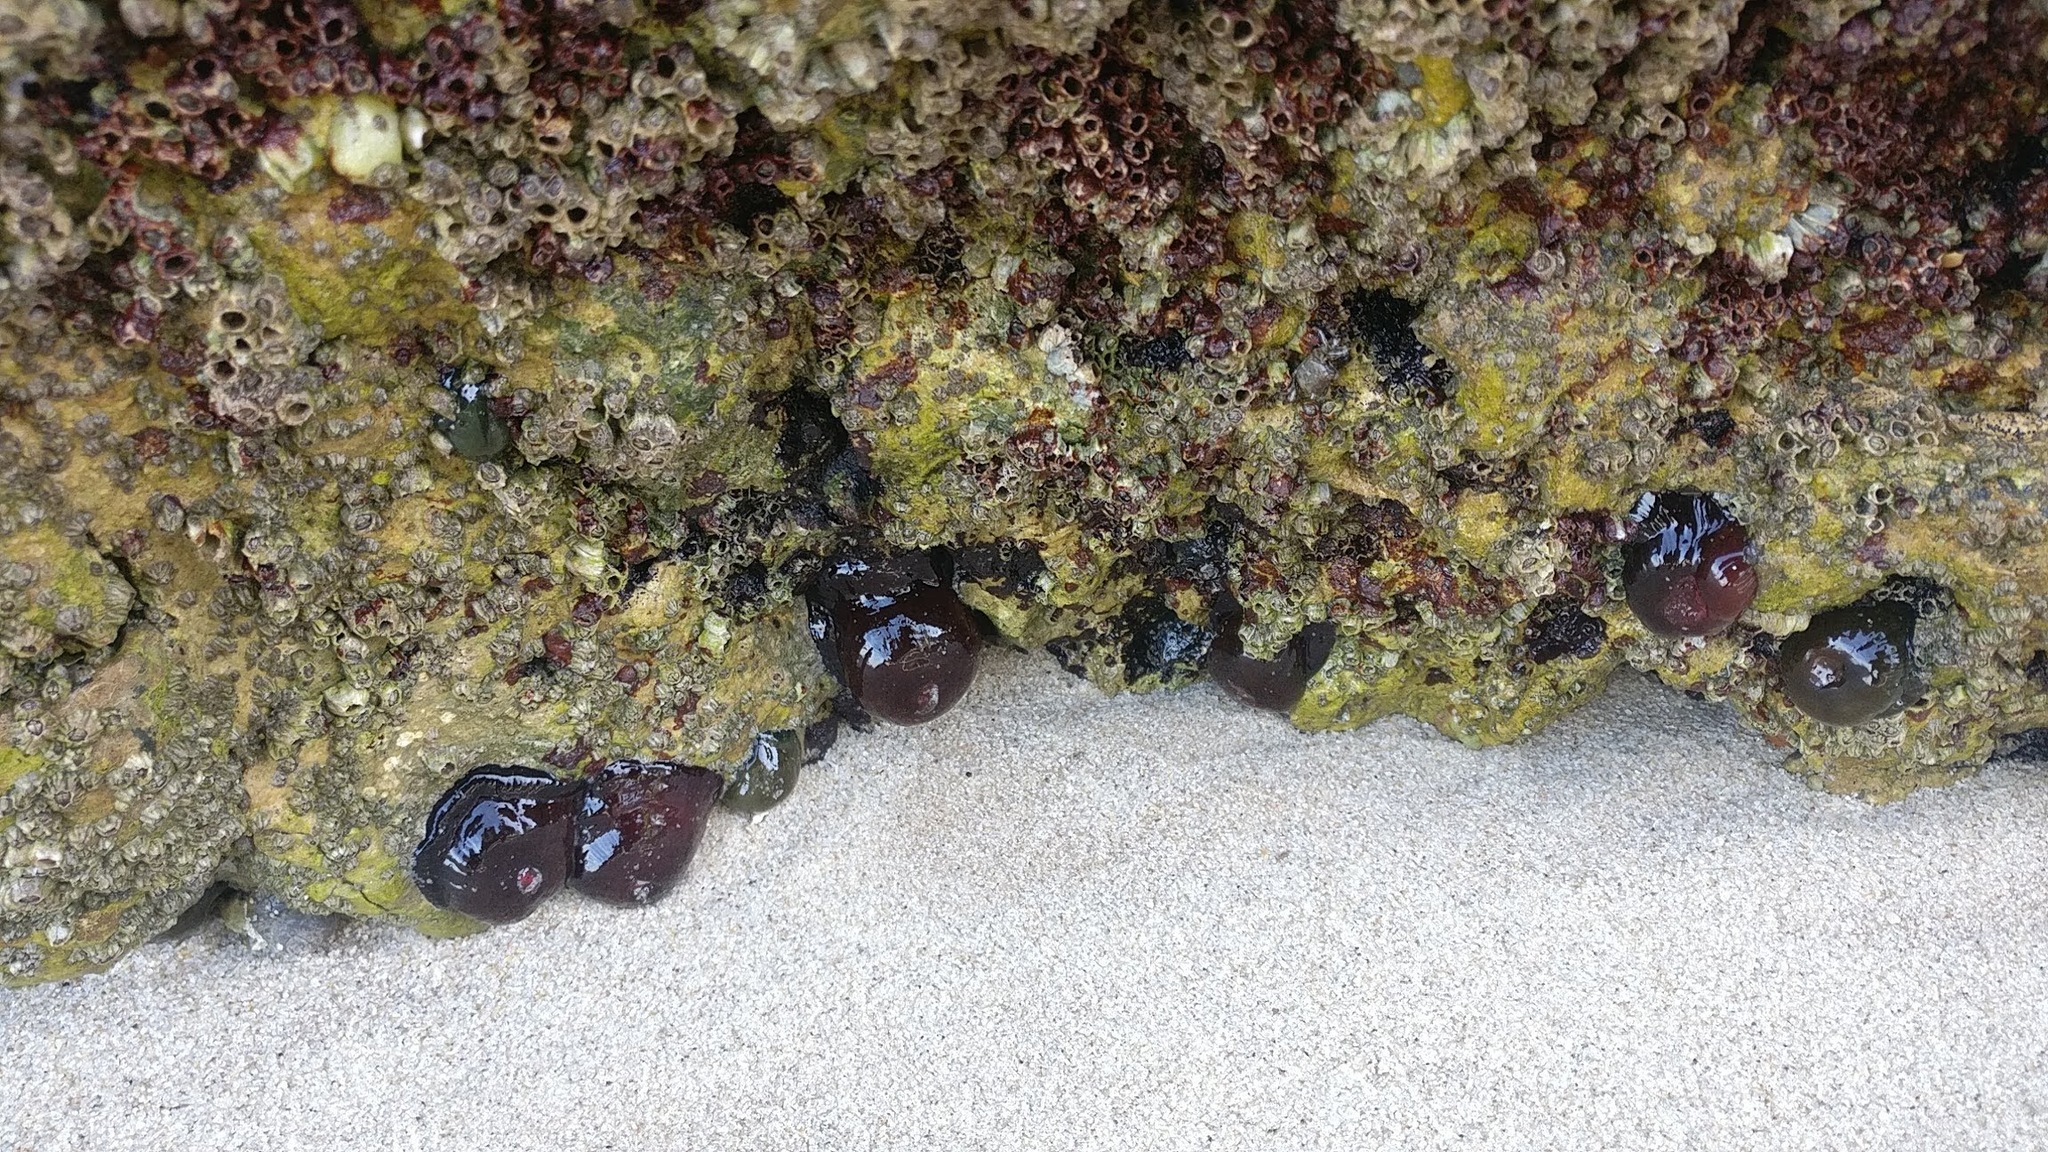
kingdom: Animalia
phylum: Cnidaria
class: Anthozoa
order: Actiniaria
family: Actiniidae
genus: Actinia
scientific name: Actinia equina
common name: Beadlet anemone
